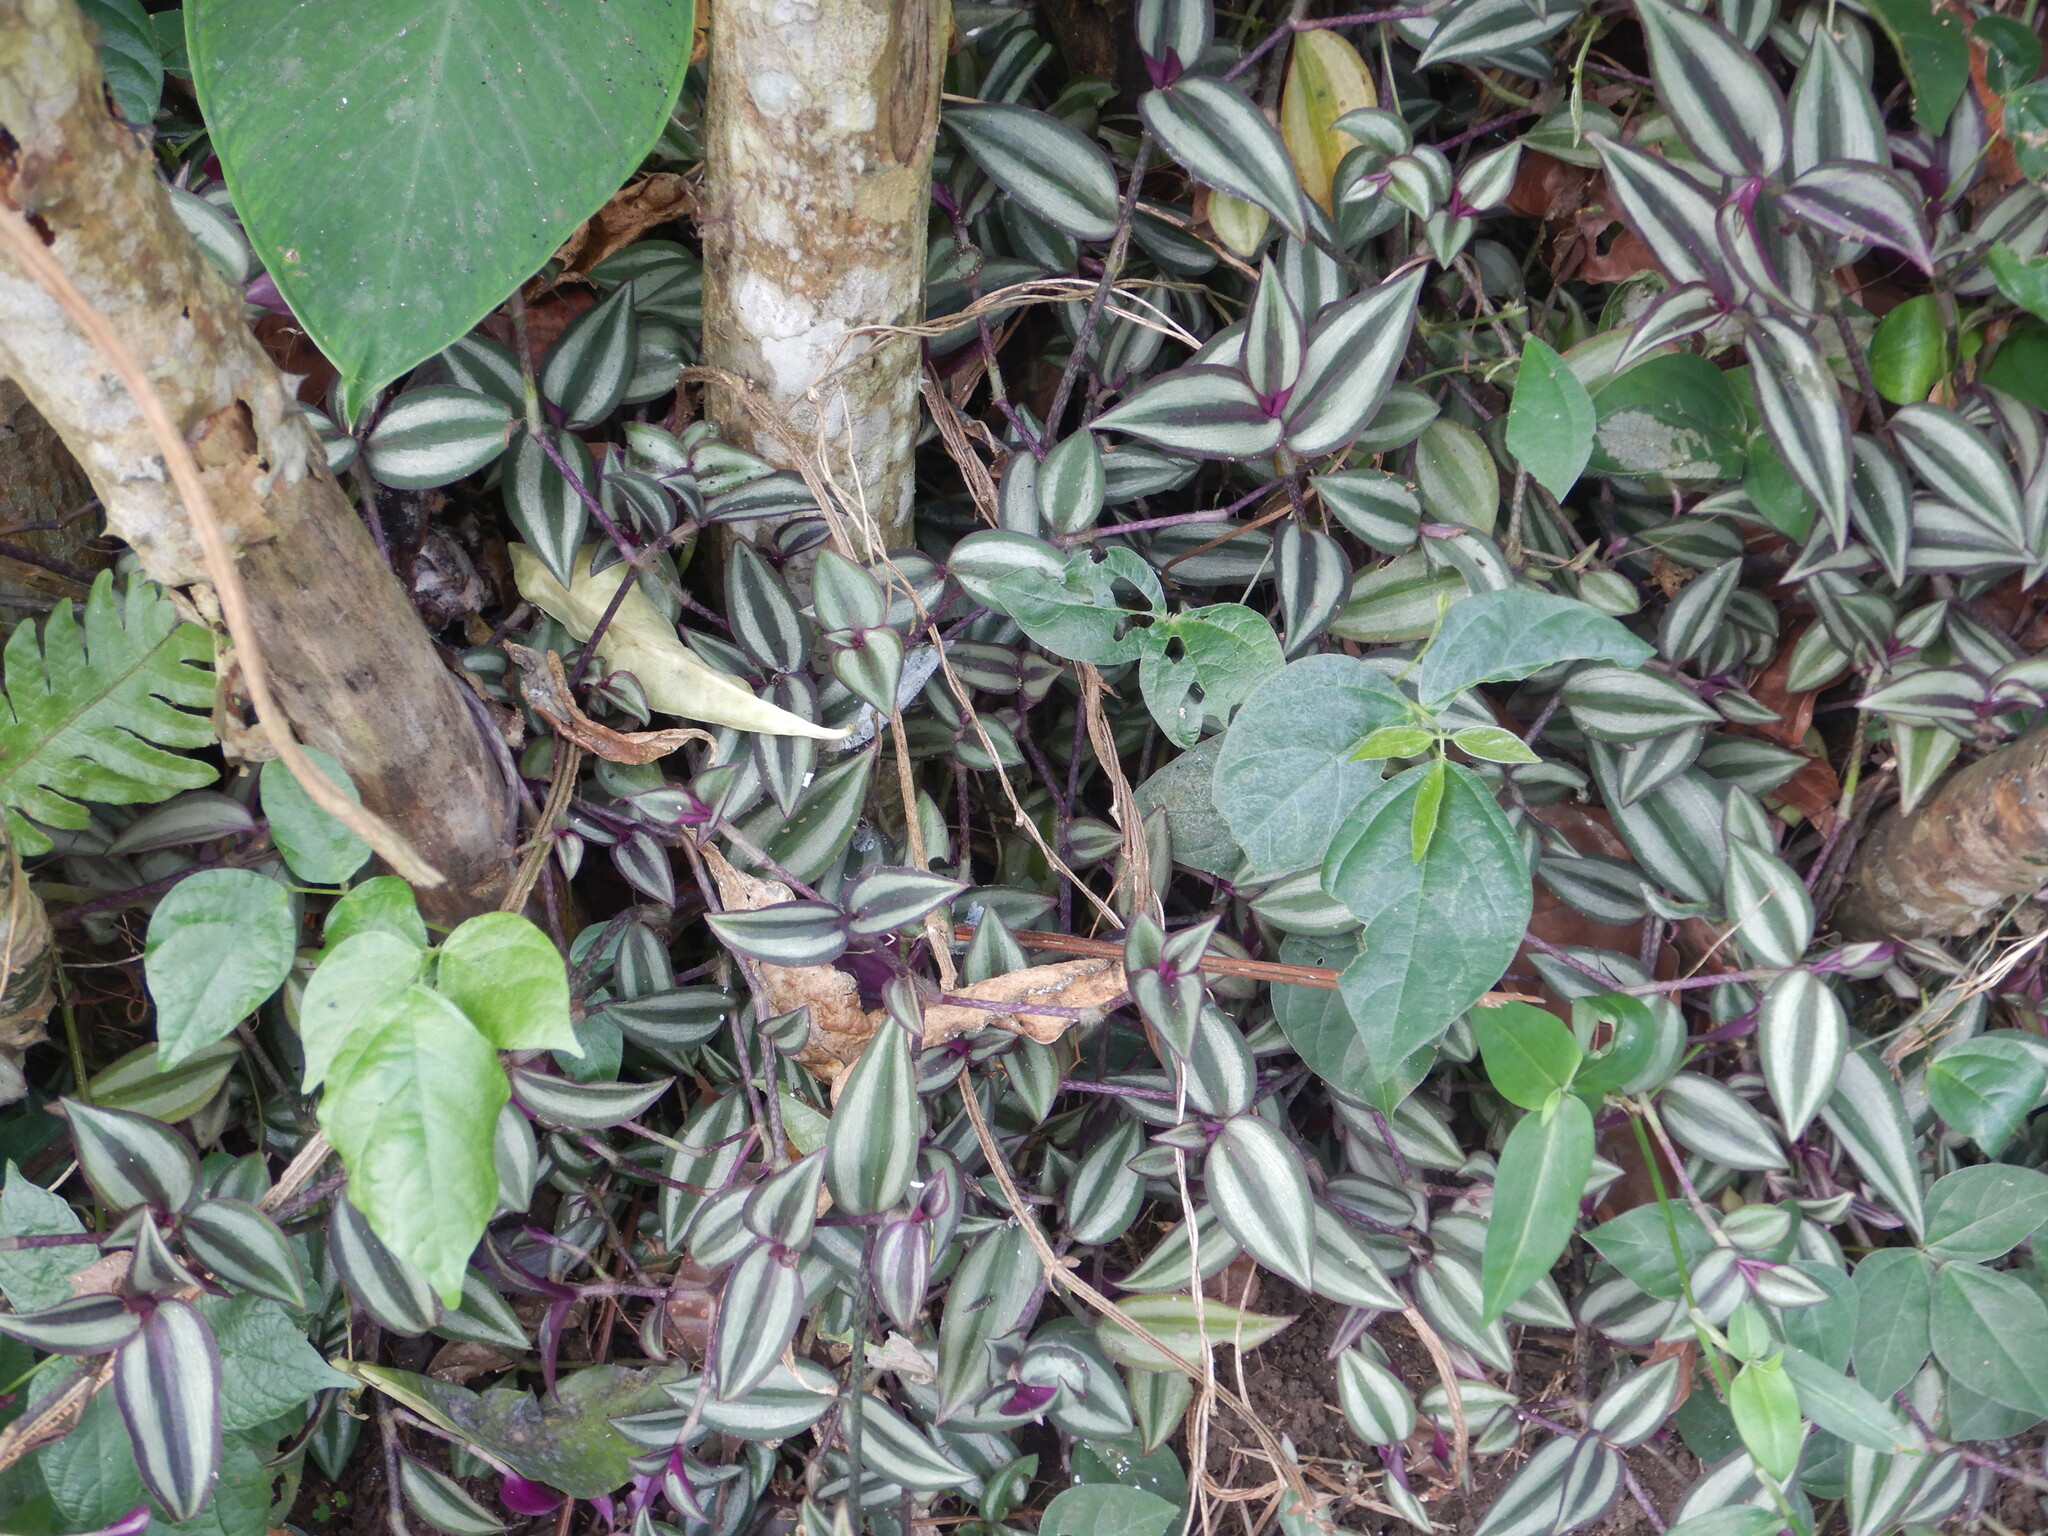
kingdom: Plantae
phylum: Tracheophyta
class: Liliopsida
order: Commelinales
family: Commelinaceae
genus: Tradescantia
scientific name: Tradescantia zebrina
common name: Inchplant
